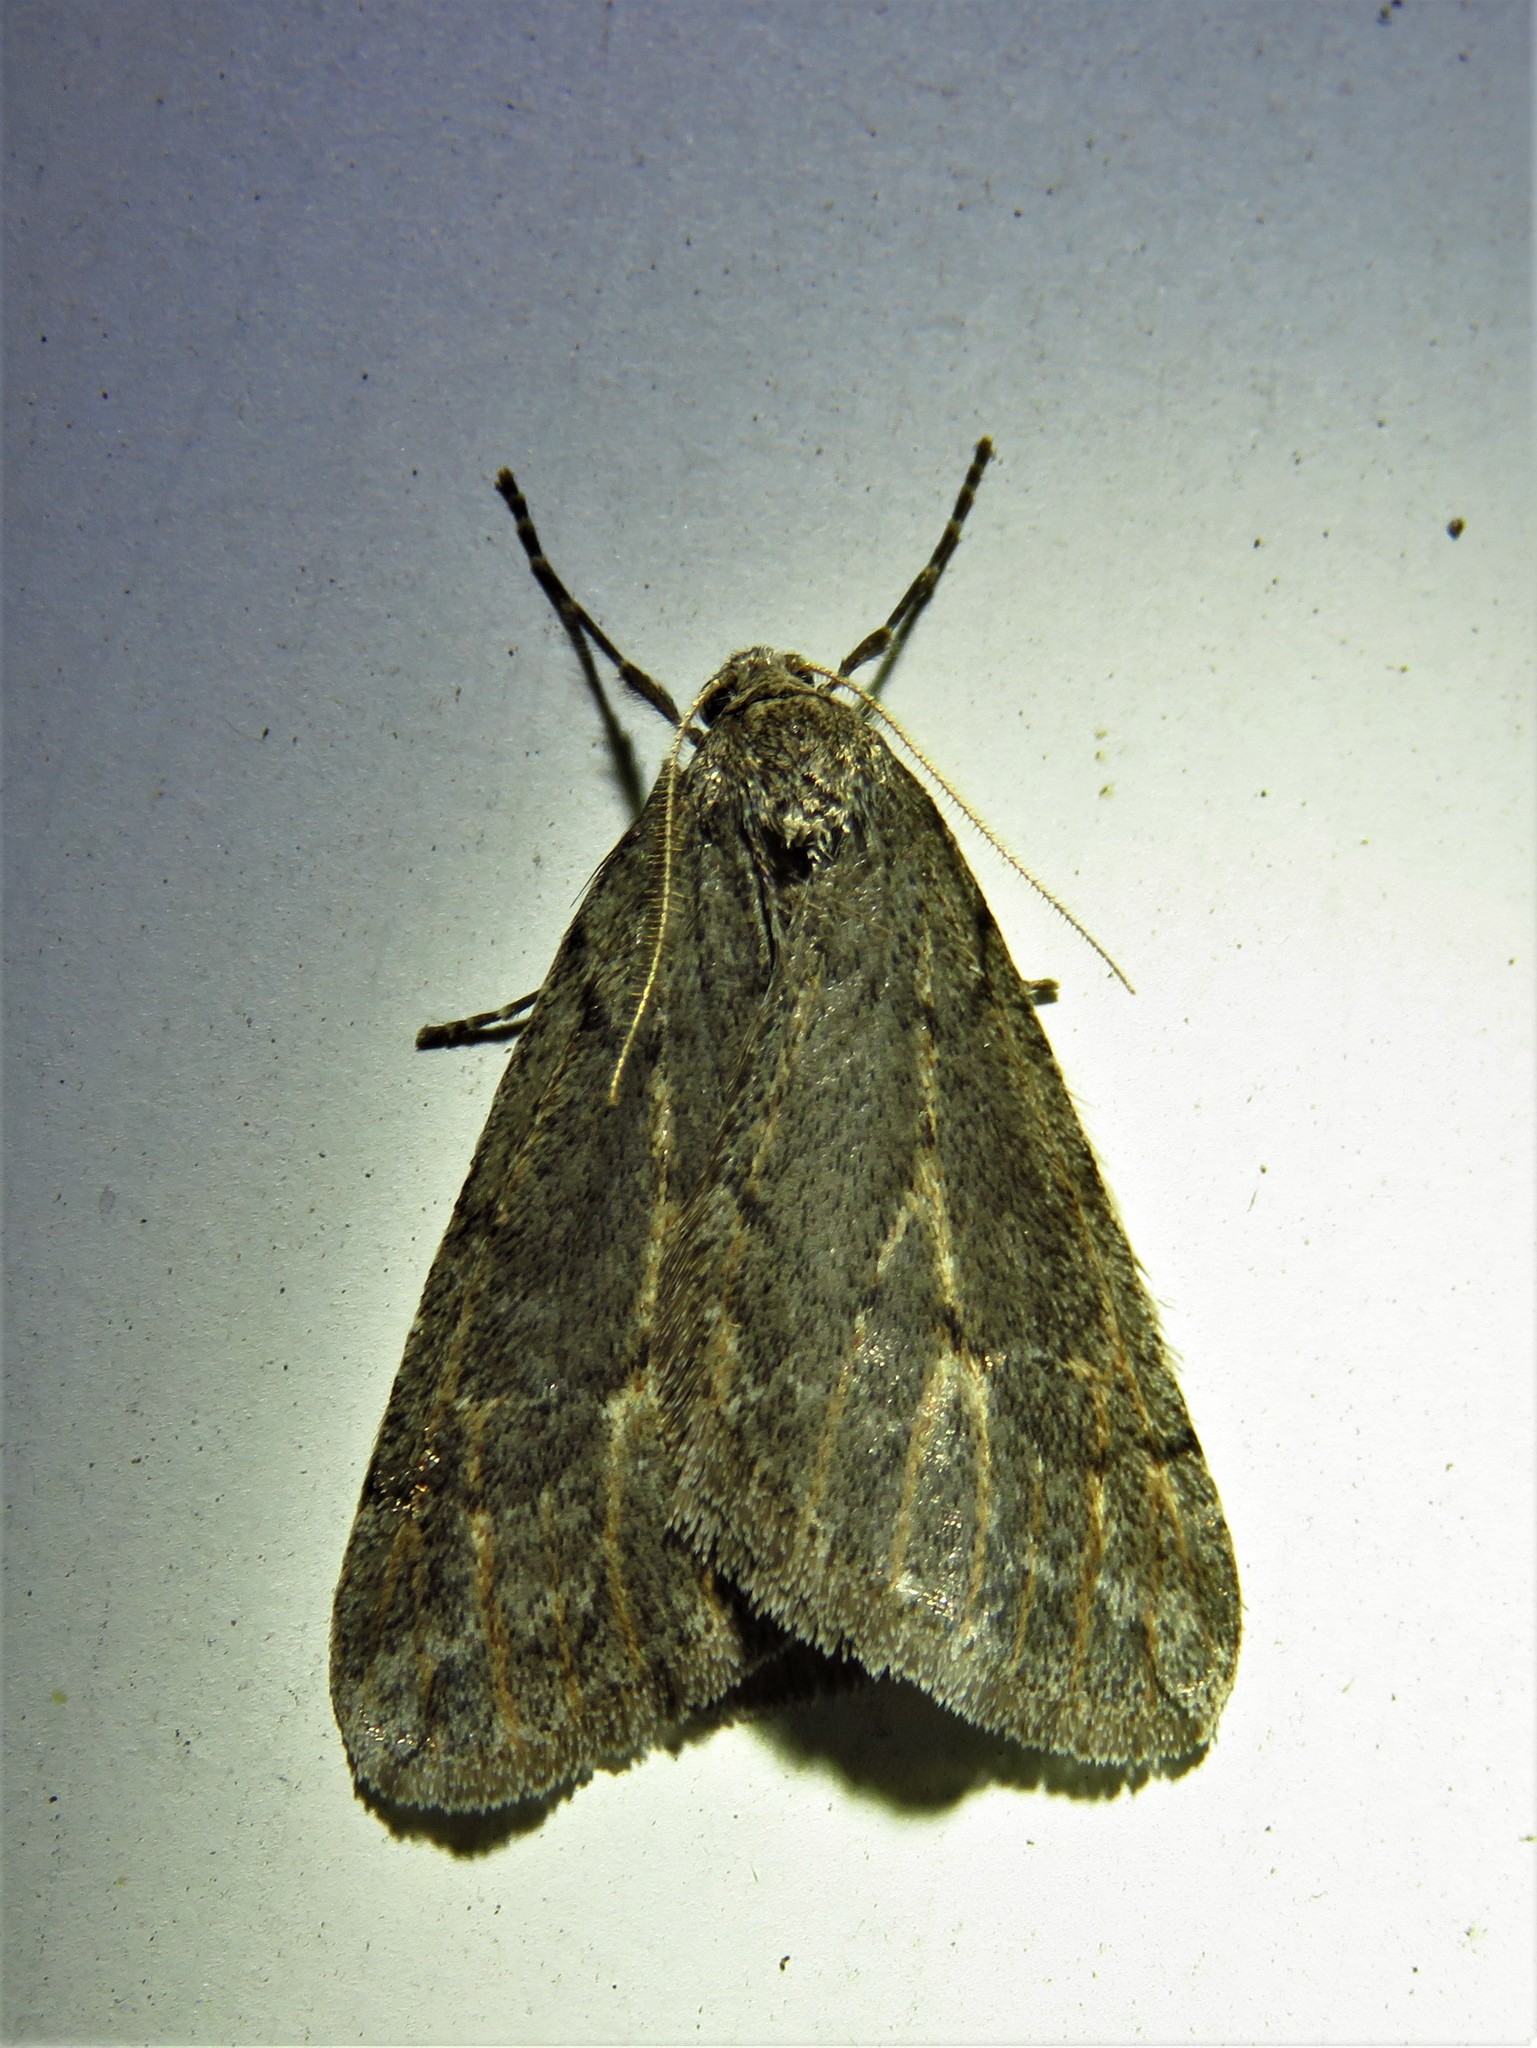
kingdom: Animalia
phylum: Arthropoda
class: Insecta
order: Lepidoptera
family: Geometridae
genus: Paleacrita
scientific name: Paleacrita vernata
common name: Spring cankerworm
